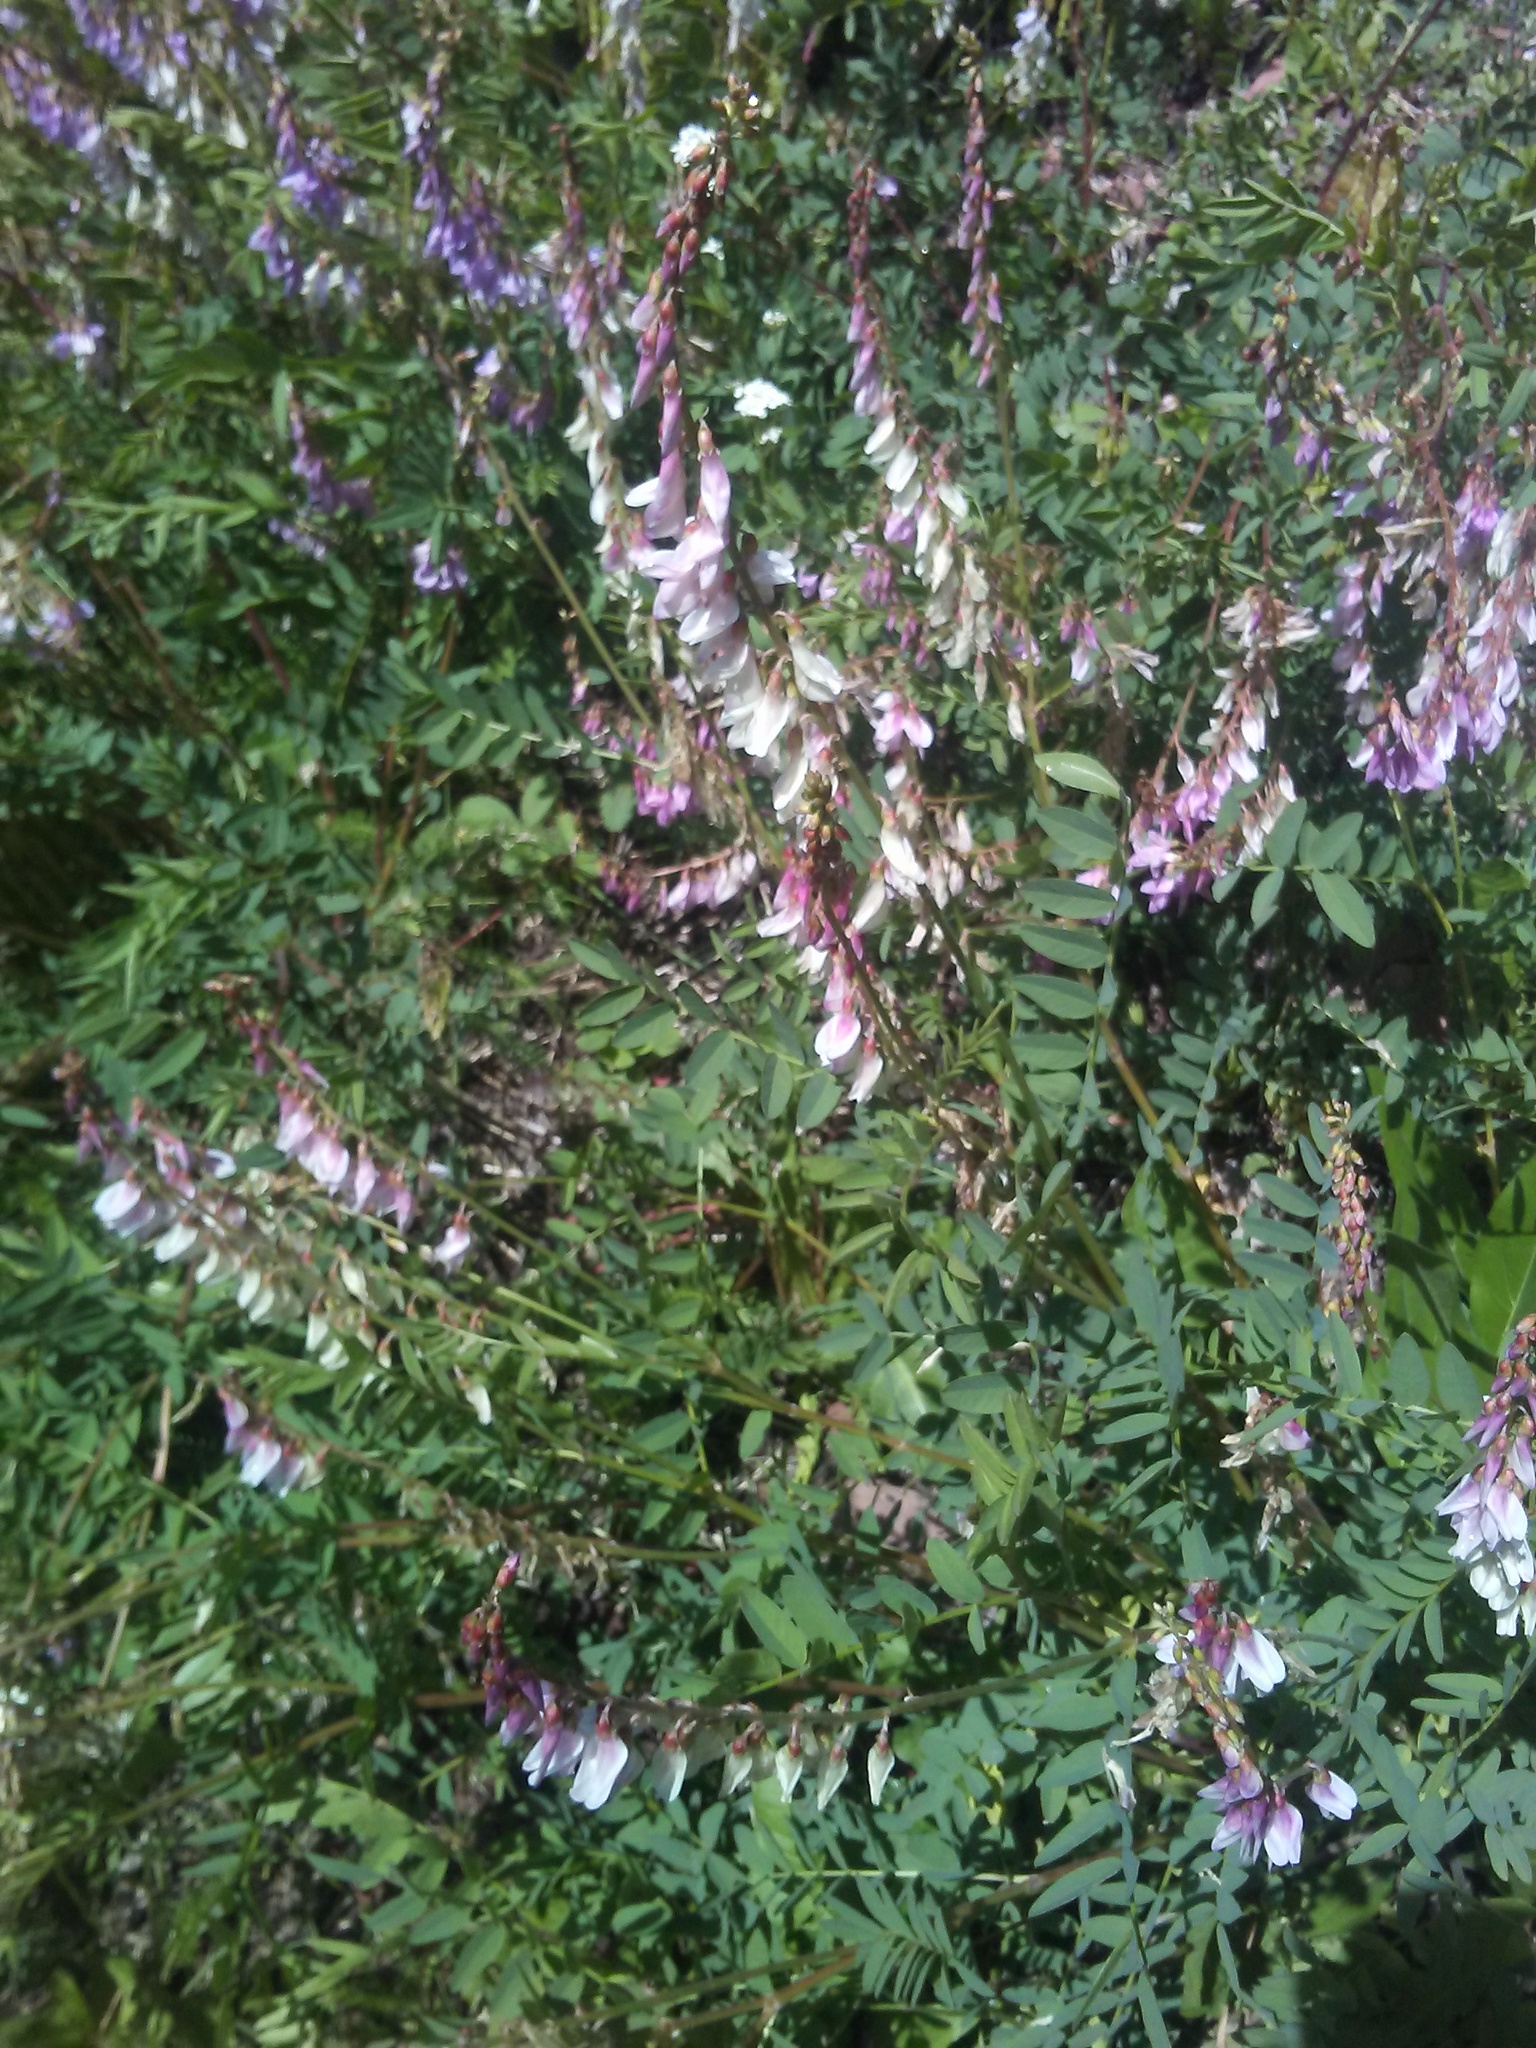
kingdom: Plantae
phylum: Tracheophyta
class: Magnoliopsida
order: Fabales
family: Fabaceae
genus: Hedysarum
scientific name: Hedysarum occidentale
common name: Western hedysarum
